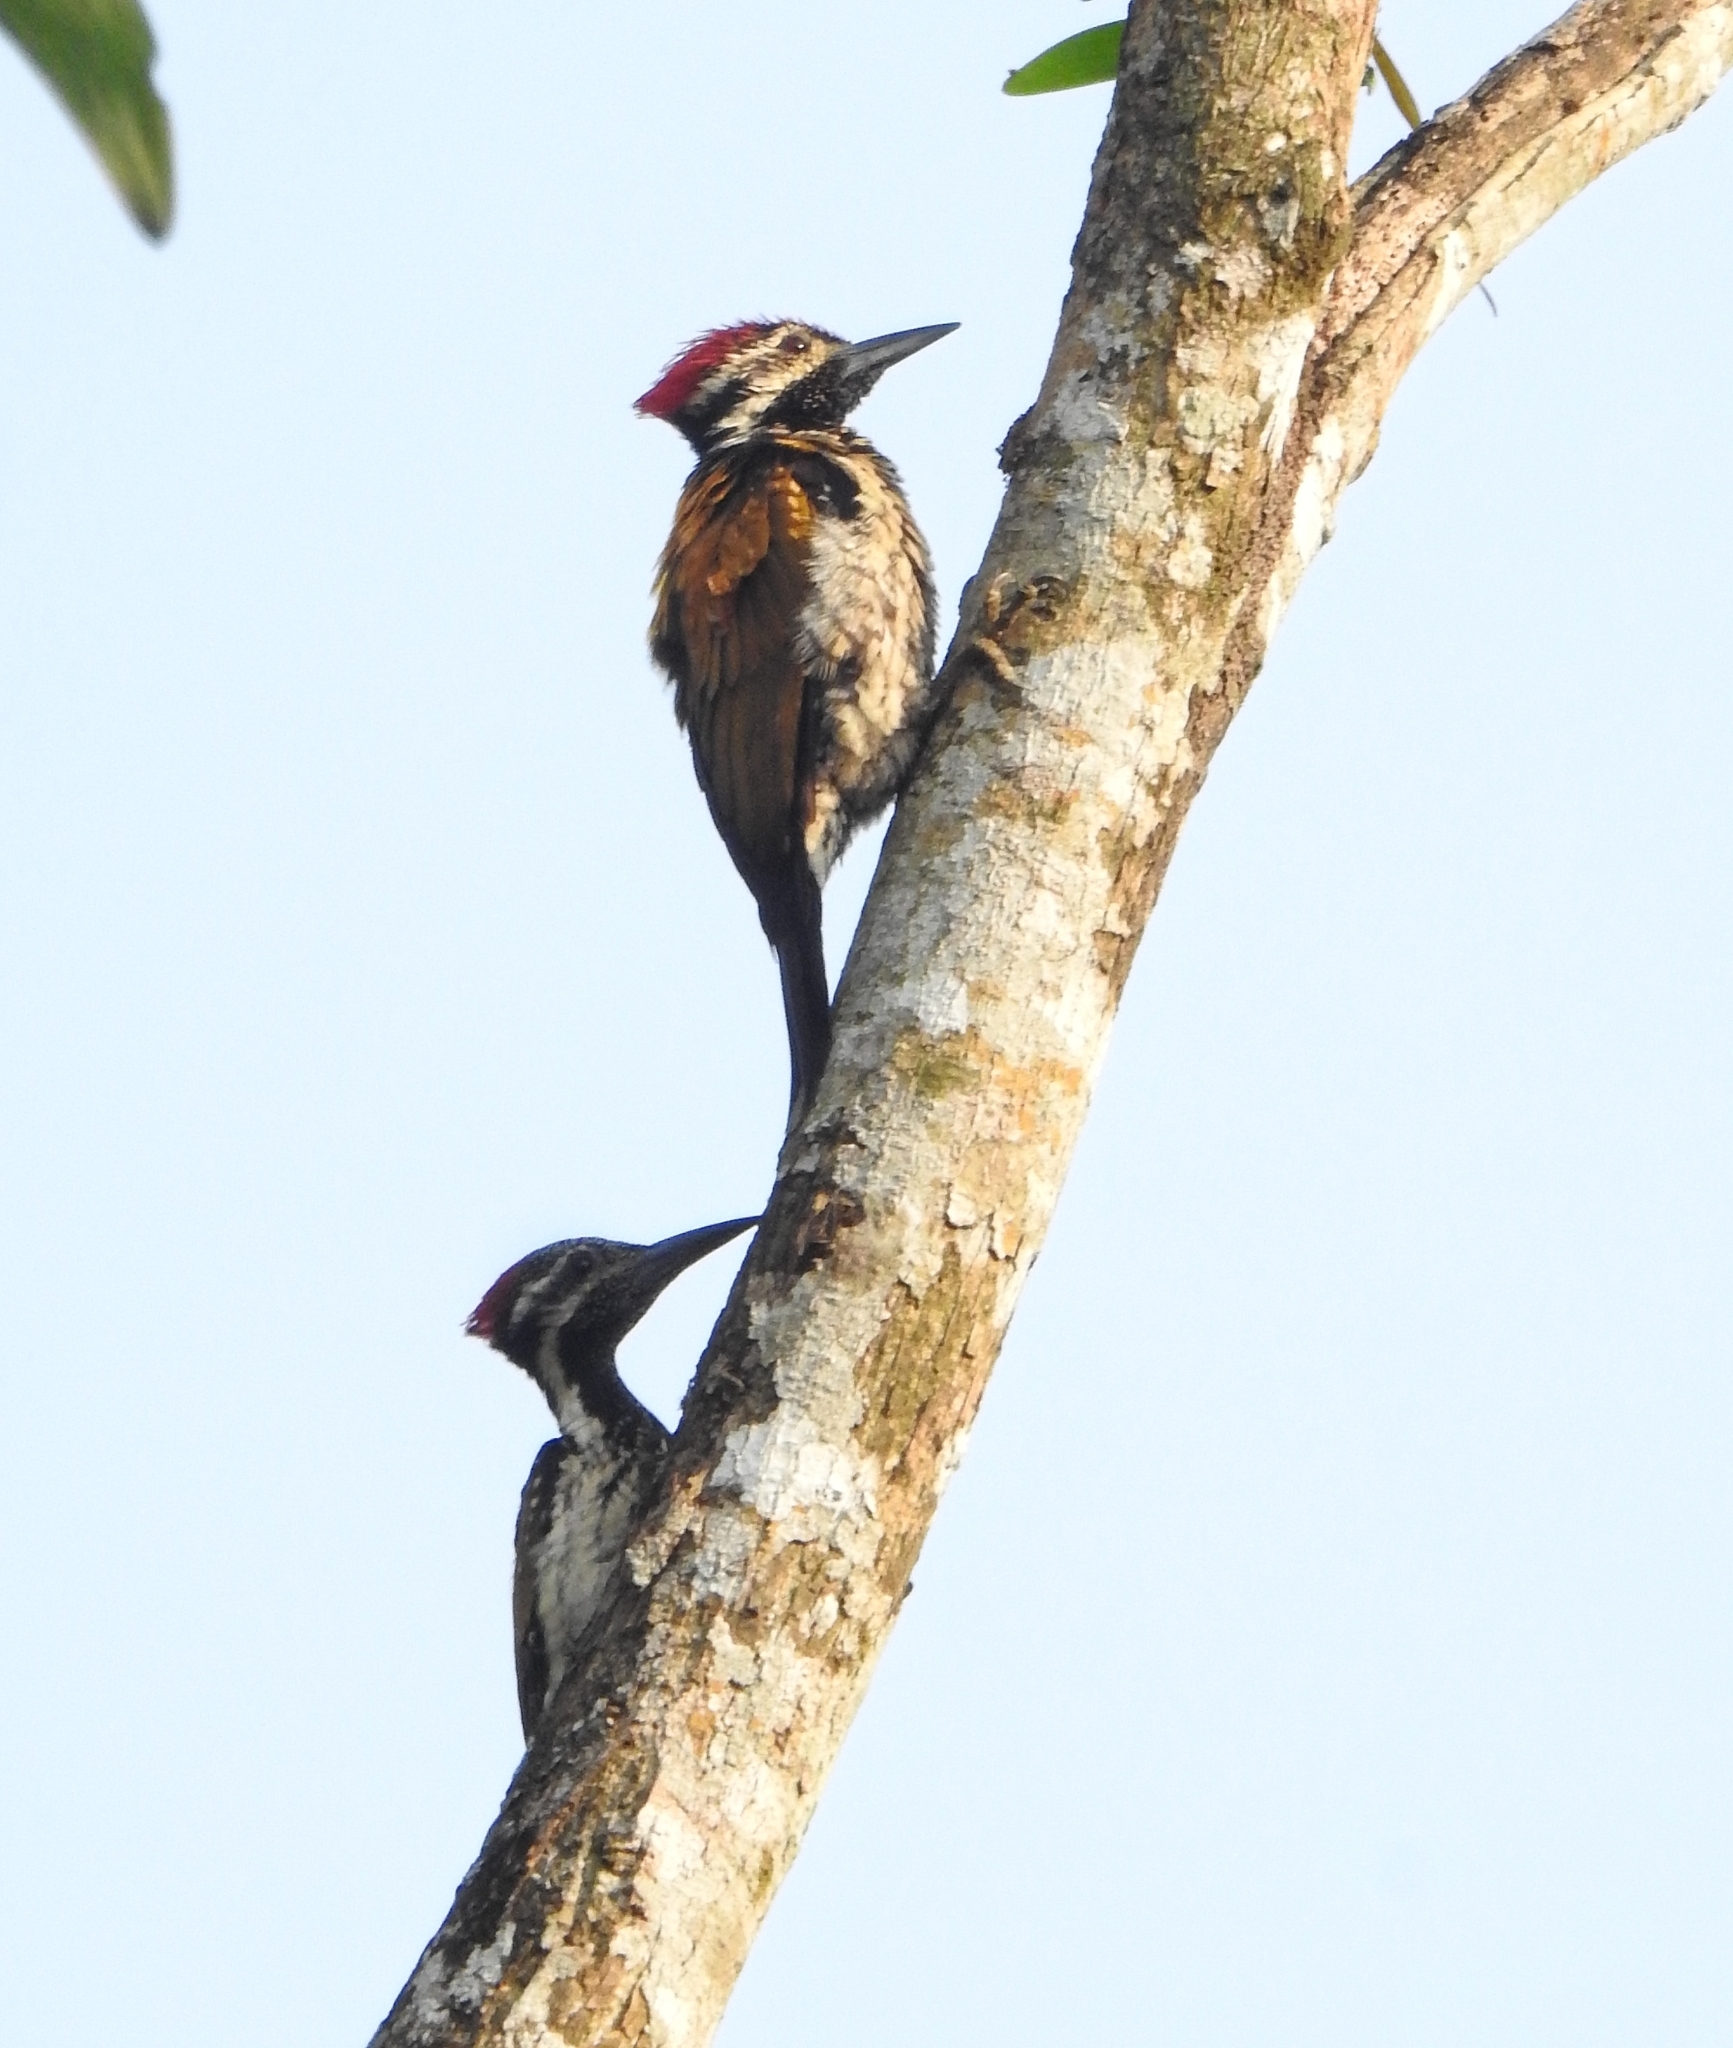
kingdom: Animalia
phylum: Chordata
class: Aves
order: Piciformes
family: Picidae
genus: Dinopium
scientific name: Dinopium benghalense
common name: Black-rumped flameback
